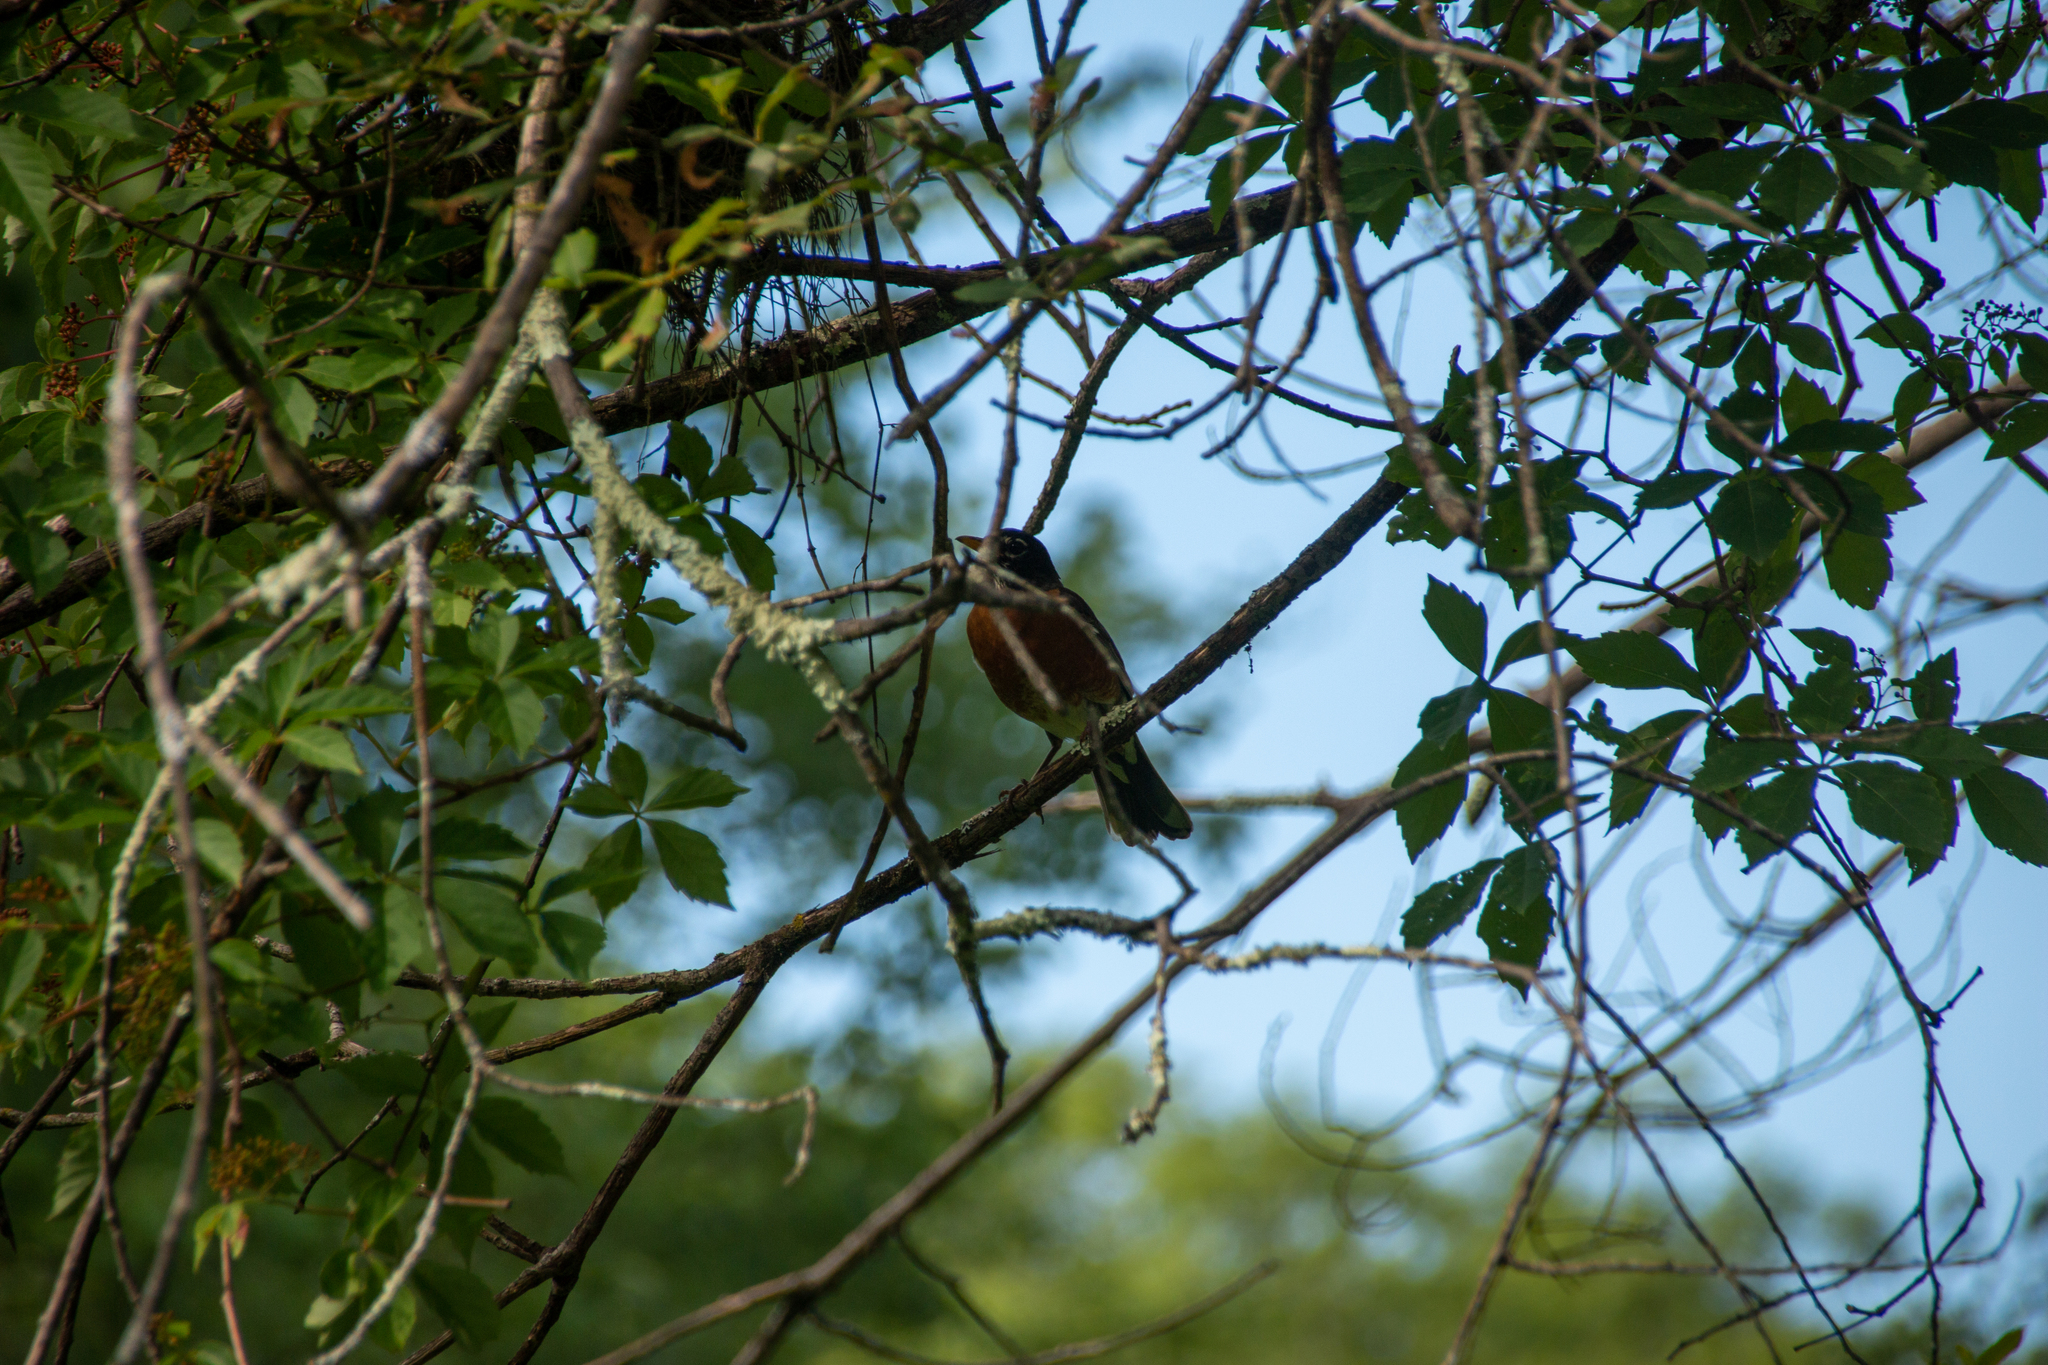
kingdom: Animalia
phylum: Chordata
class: Aves
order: Passeriformes
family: Turdidae
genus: Turdus
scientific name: Turdus migratorius
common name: American robin
